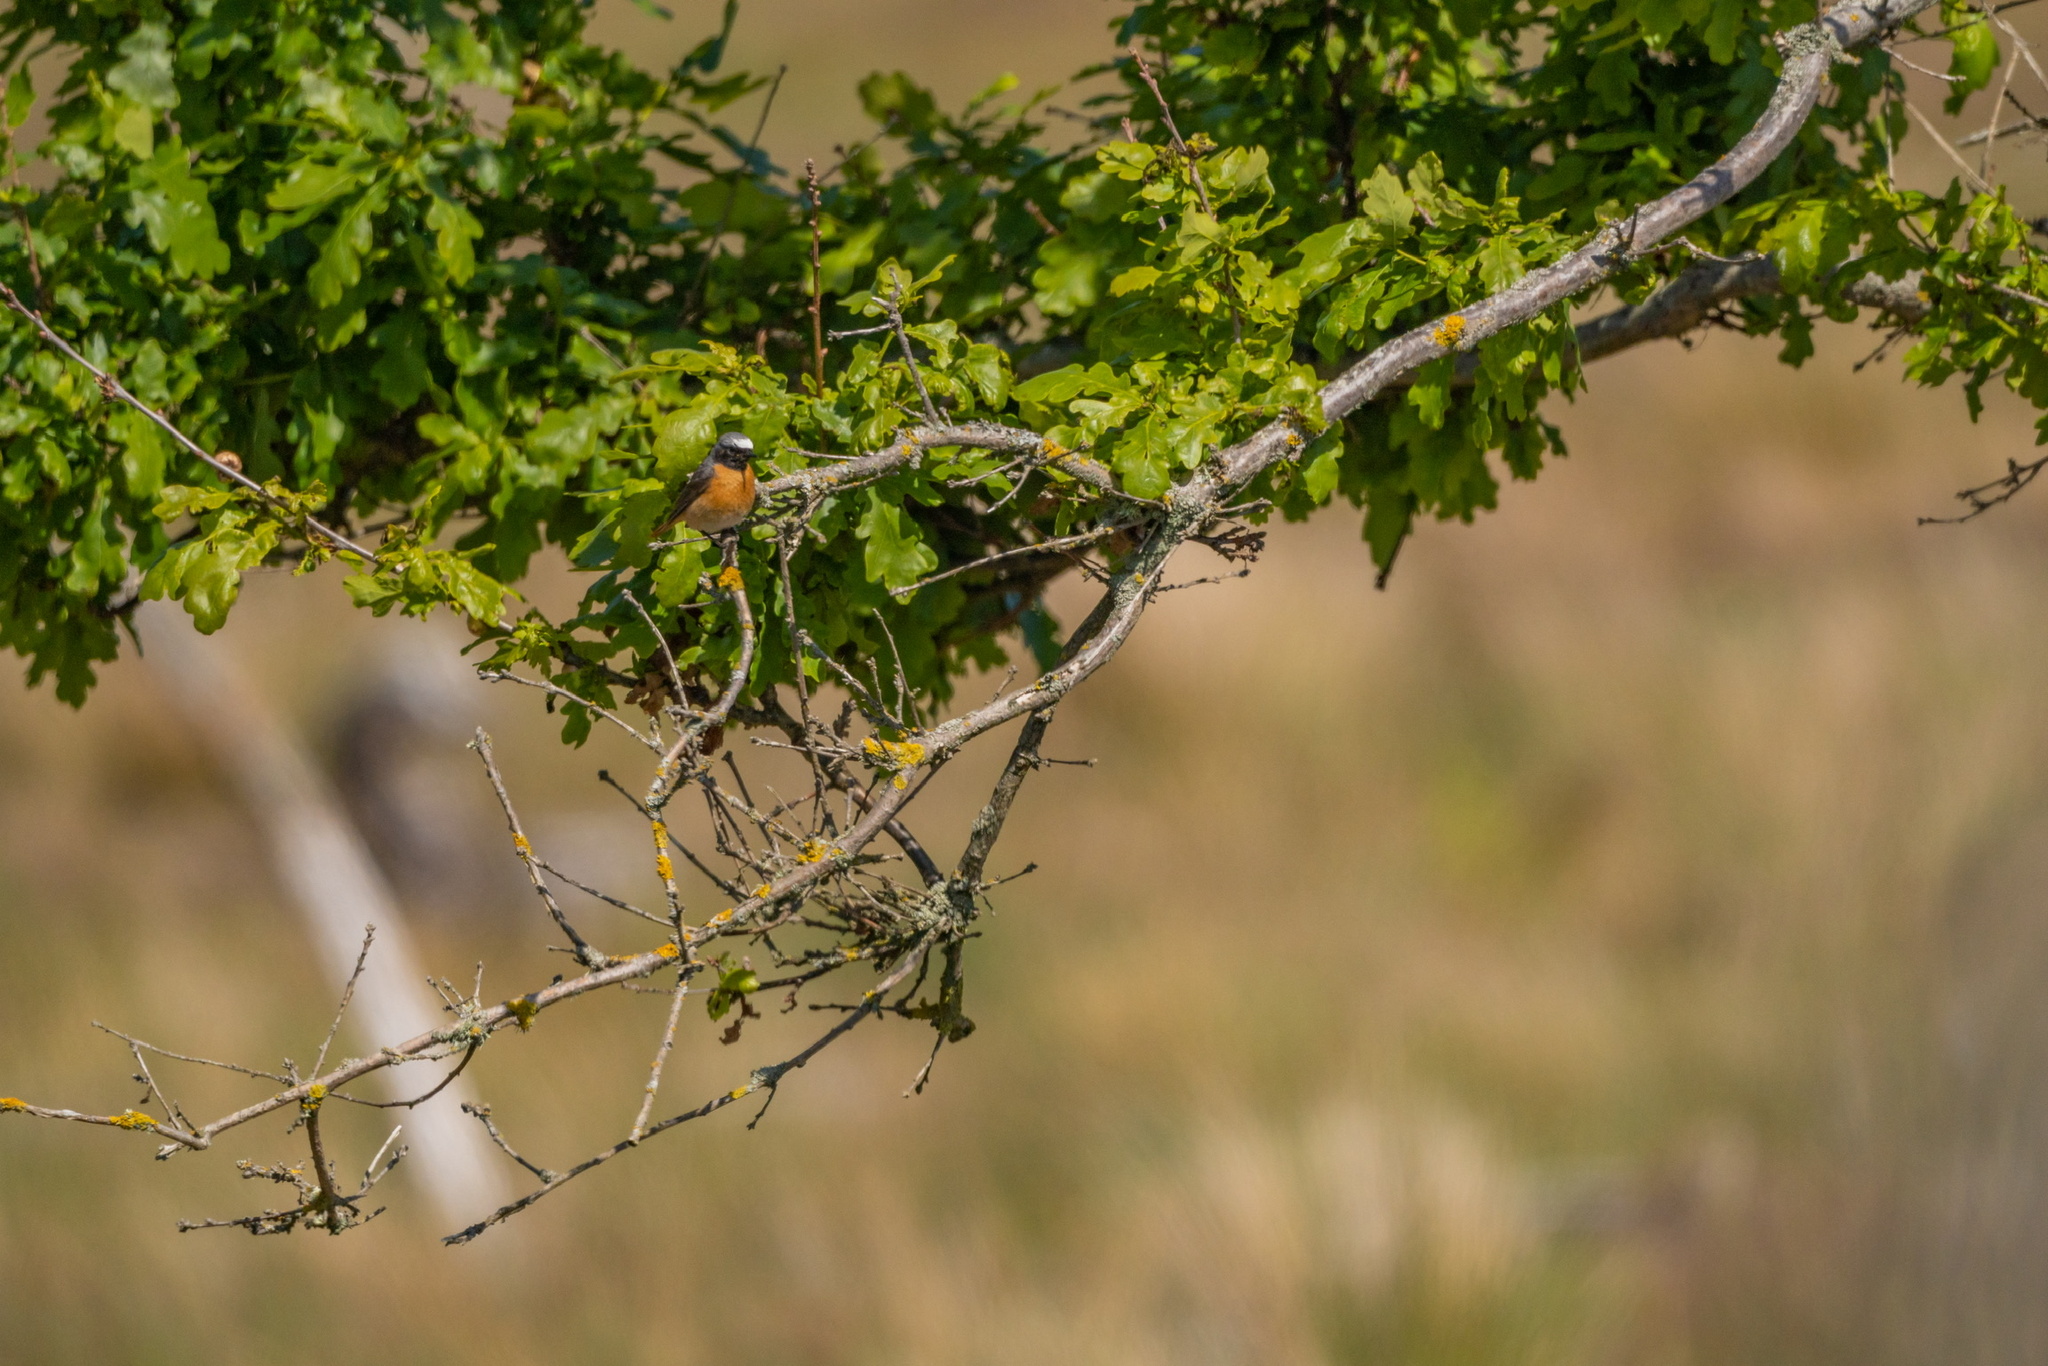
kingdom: Animalia
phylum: Chordata
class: Aves
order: Passeriformes
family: Muscicapidae
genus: Phoenicurus
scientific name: Phoenicurus phoenicurus
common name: Common redstart
